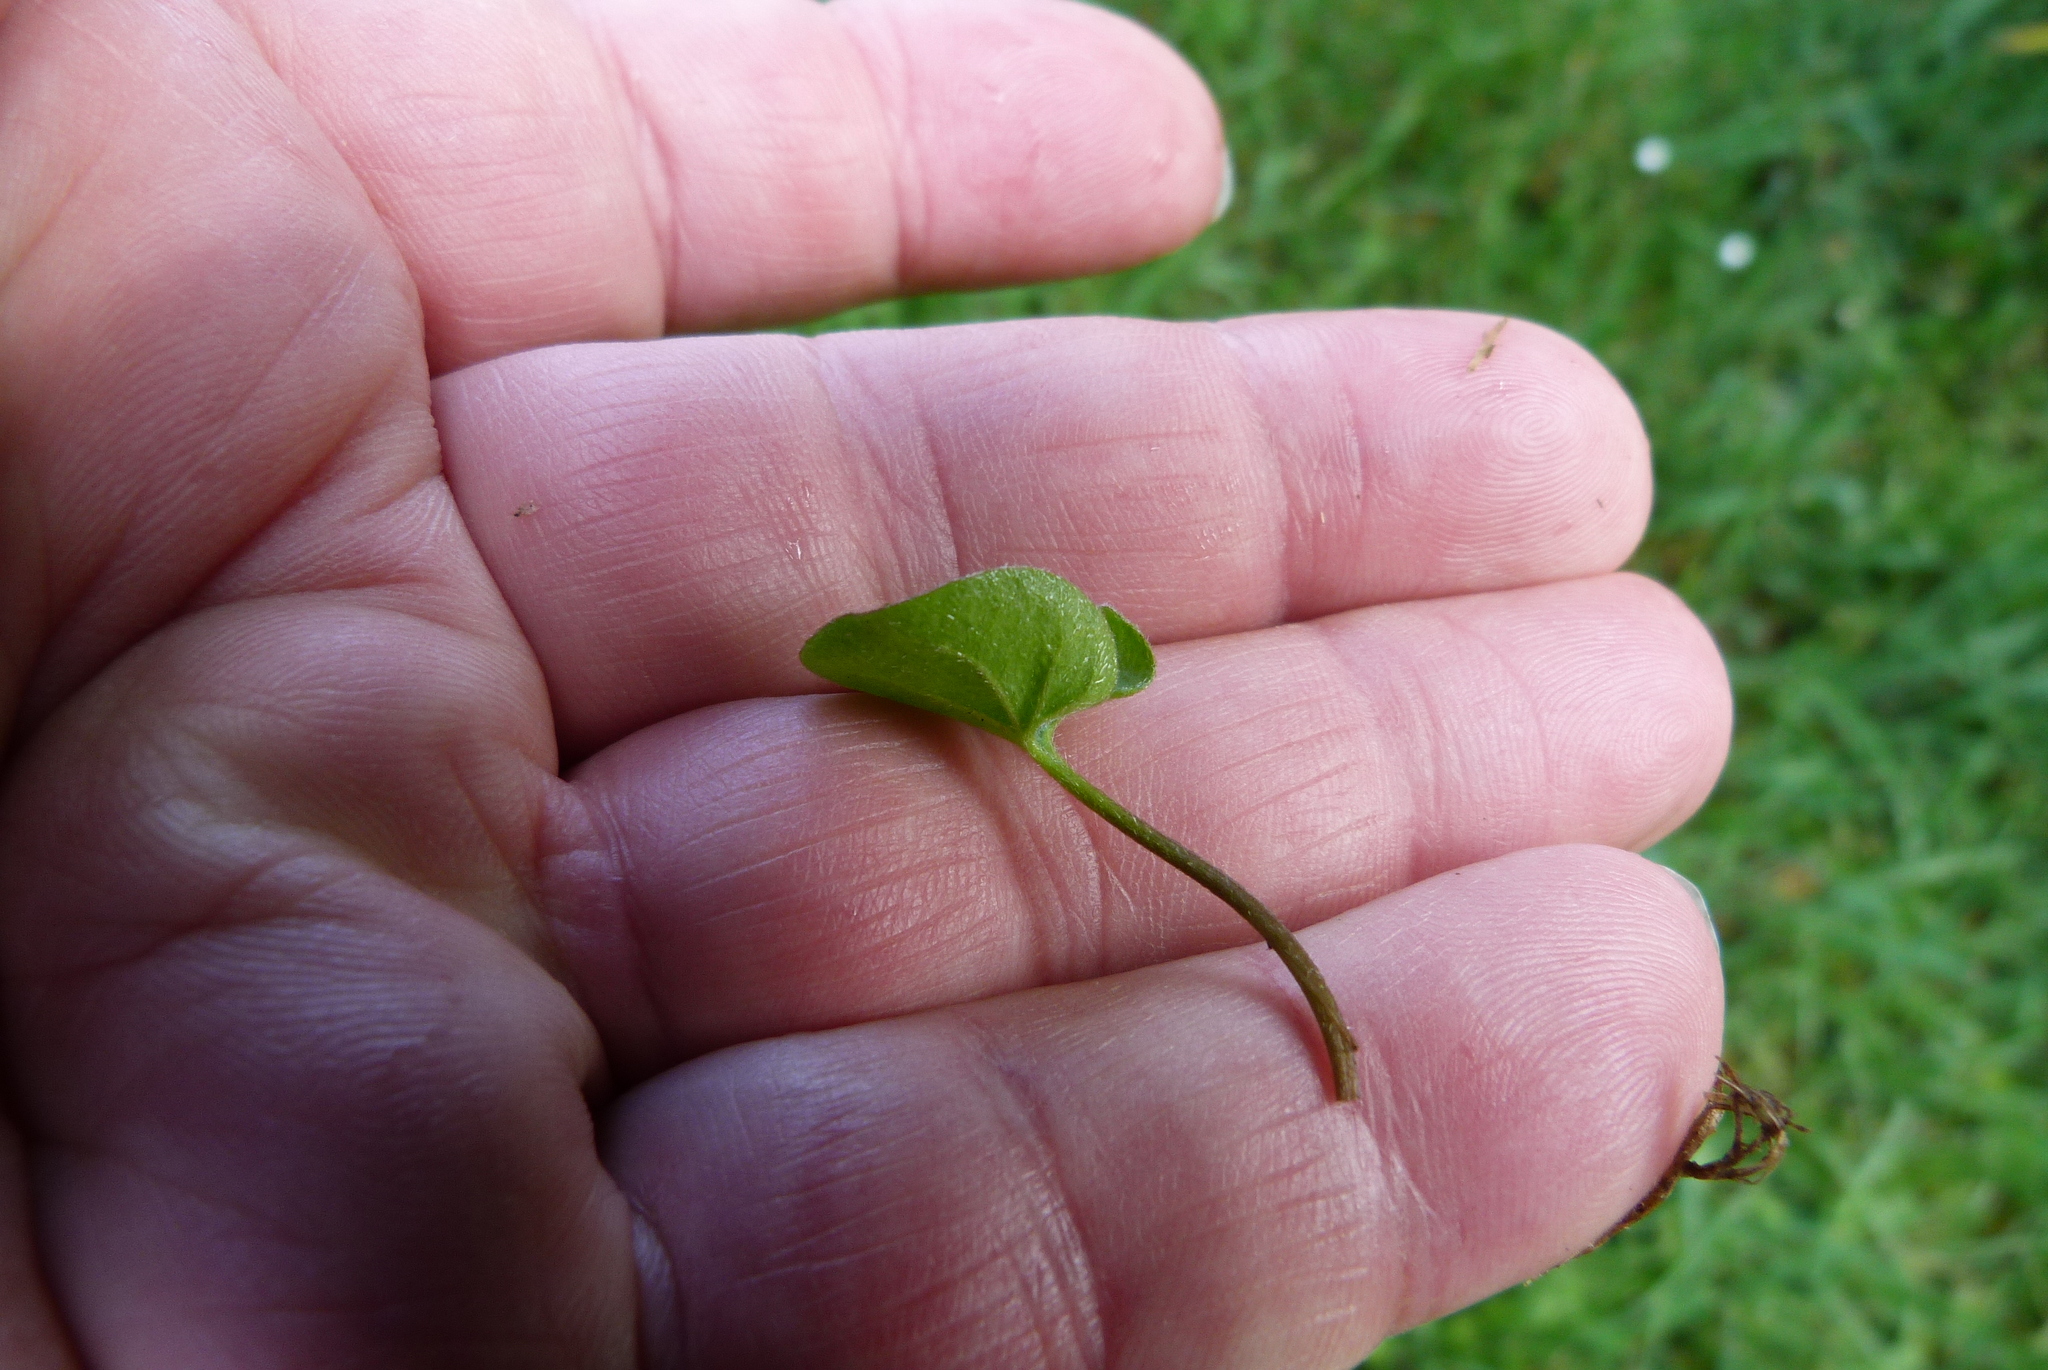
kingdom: Plantae
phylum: Tracheophyta
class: Magnoliopsida
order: Solanales
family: Convolvulaceae
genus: Dichondra
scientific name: Dichondra repens
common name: Kidneyweed
